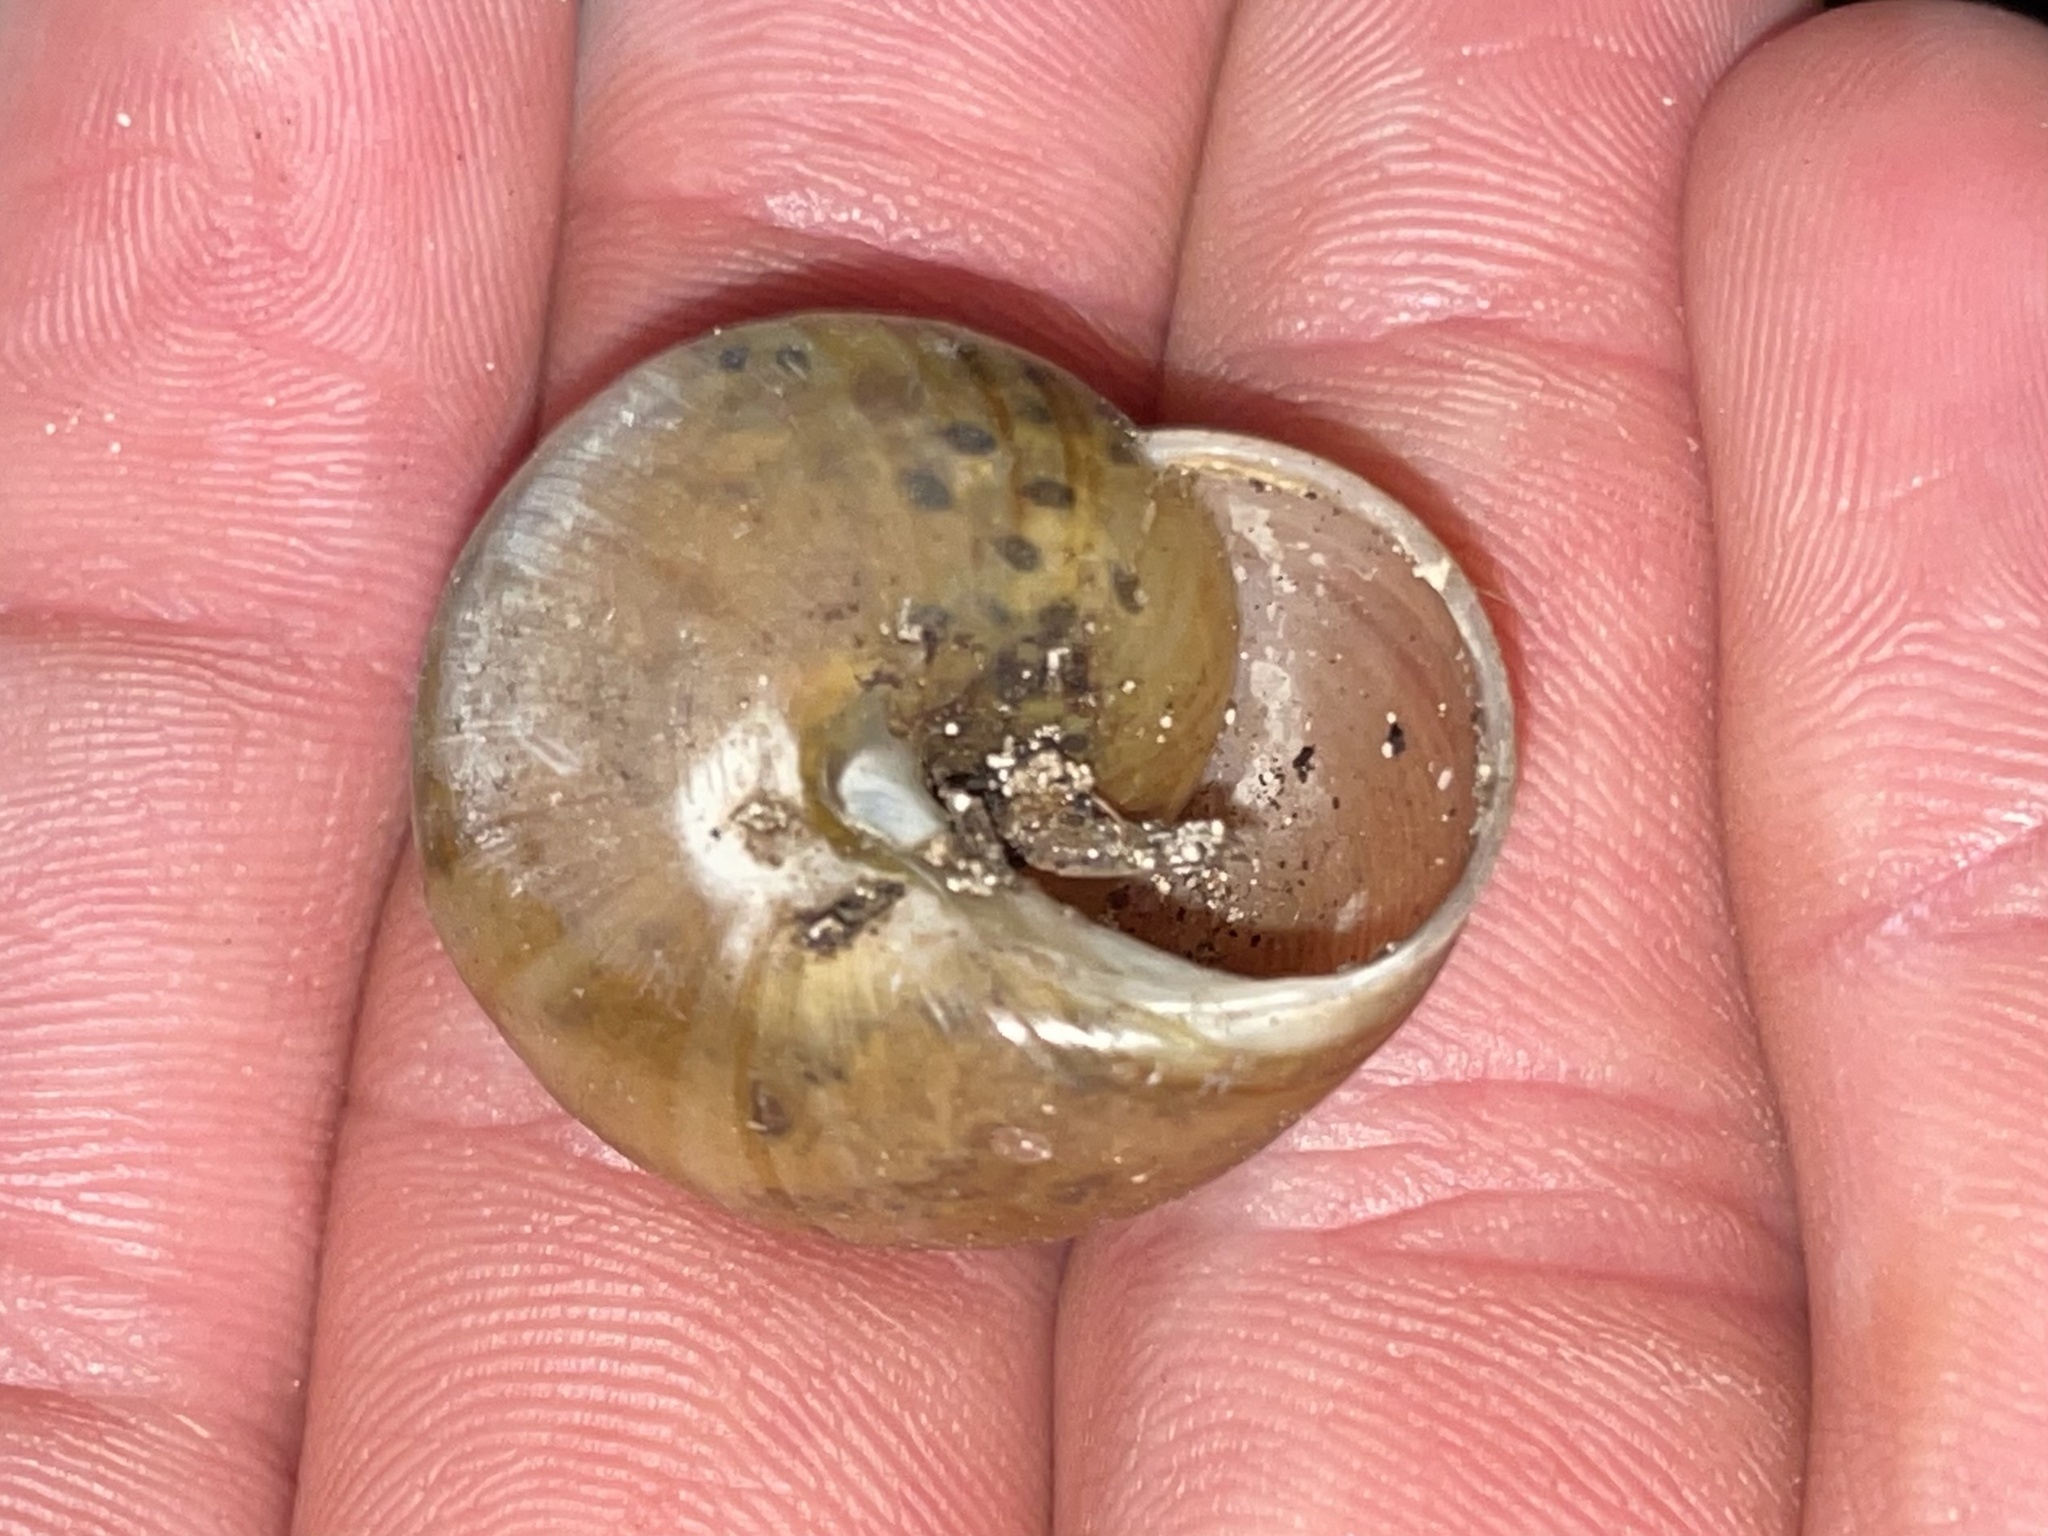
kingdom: Animalia
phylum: Mollusca
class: Gastropoda
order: Stylommatophora
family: Zachrysiidae
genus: Zachrysia
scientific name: Zachrysia provisoria
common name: Garden zachrysia
